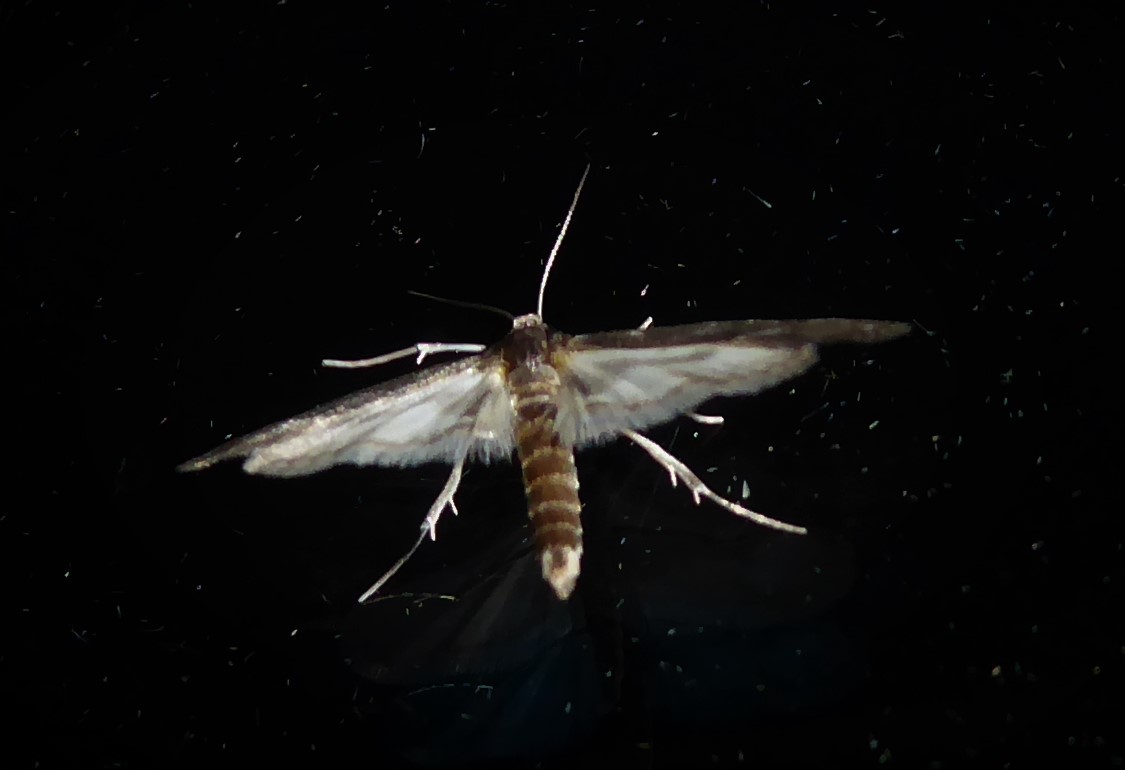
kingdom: Animalia
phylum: Arthropoda
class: Insecta
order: Lepidoptera
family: Crambidae
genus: Hygraula
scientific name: Hygraula nitens
